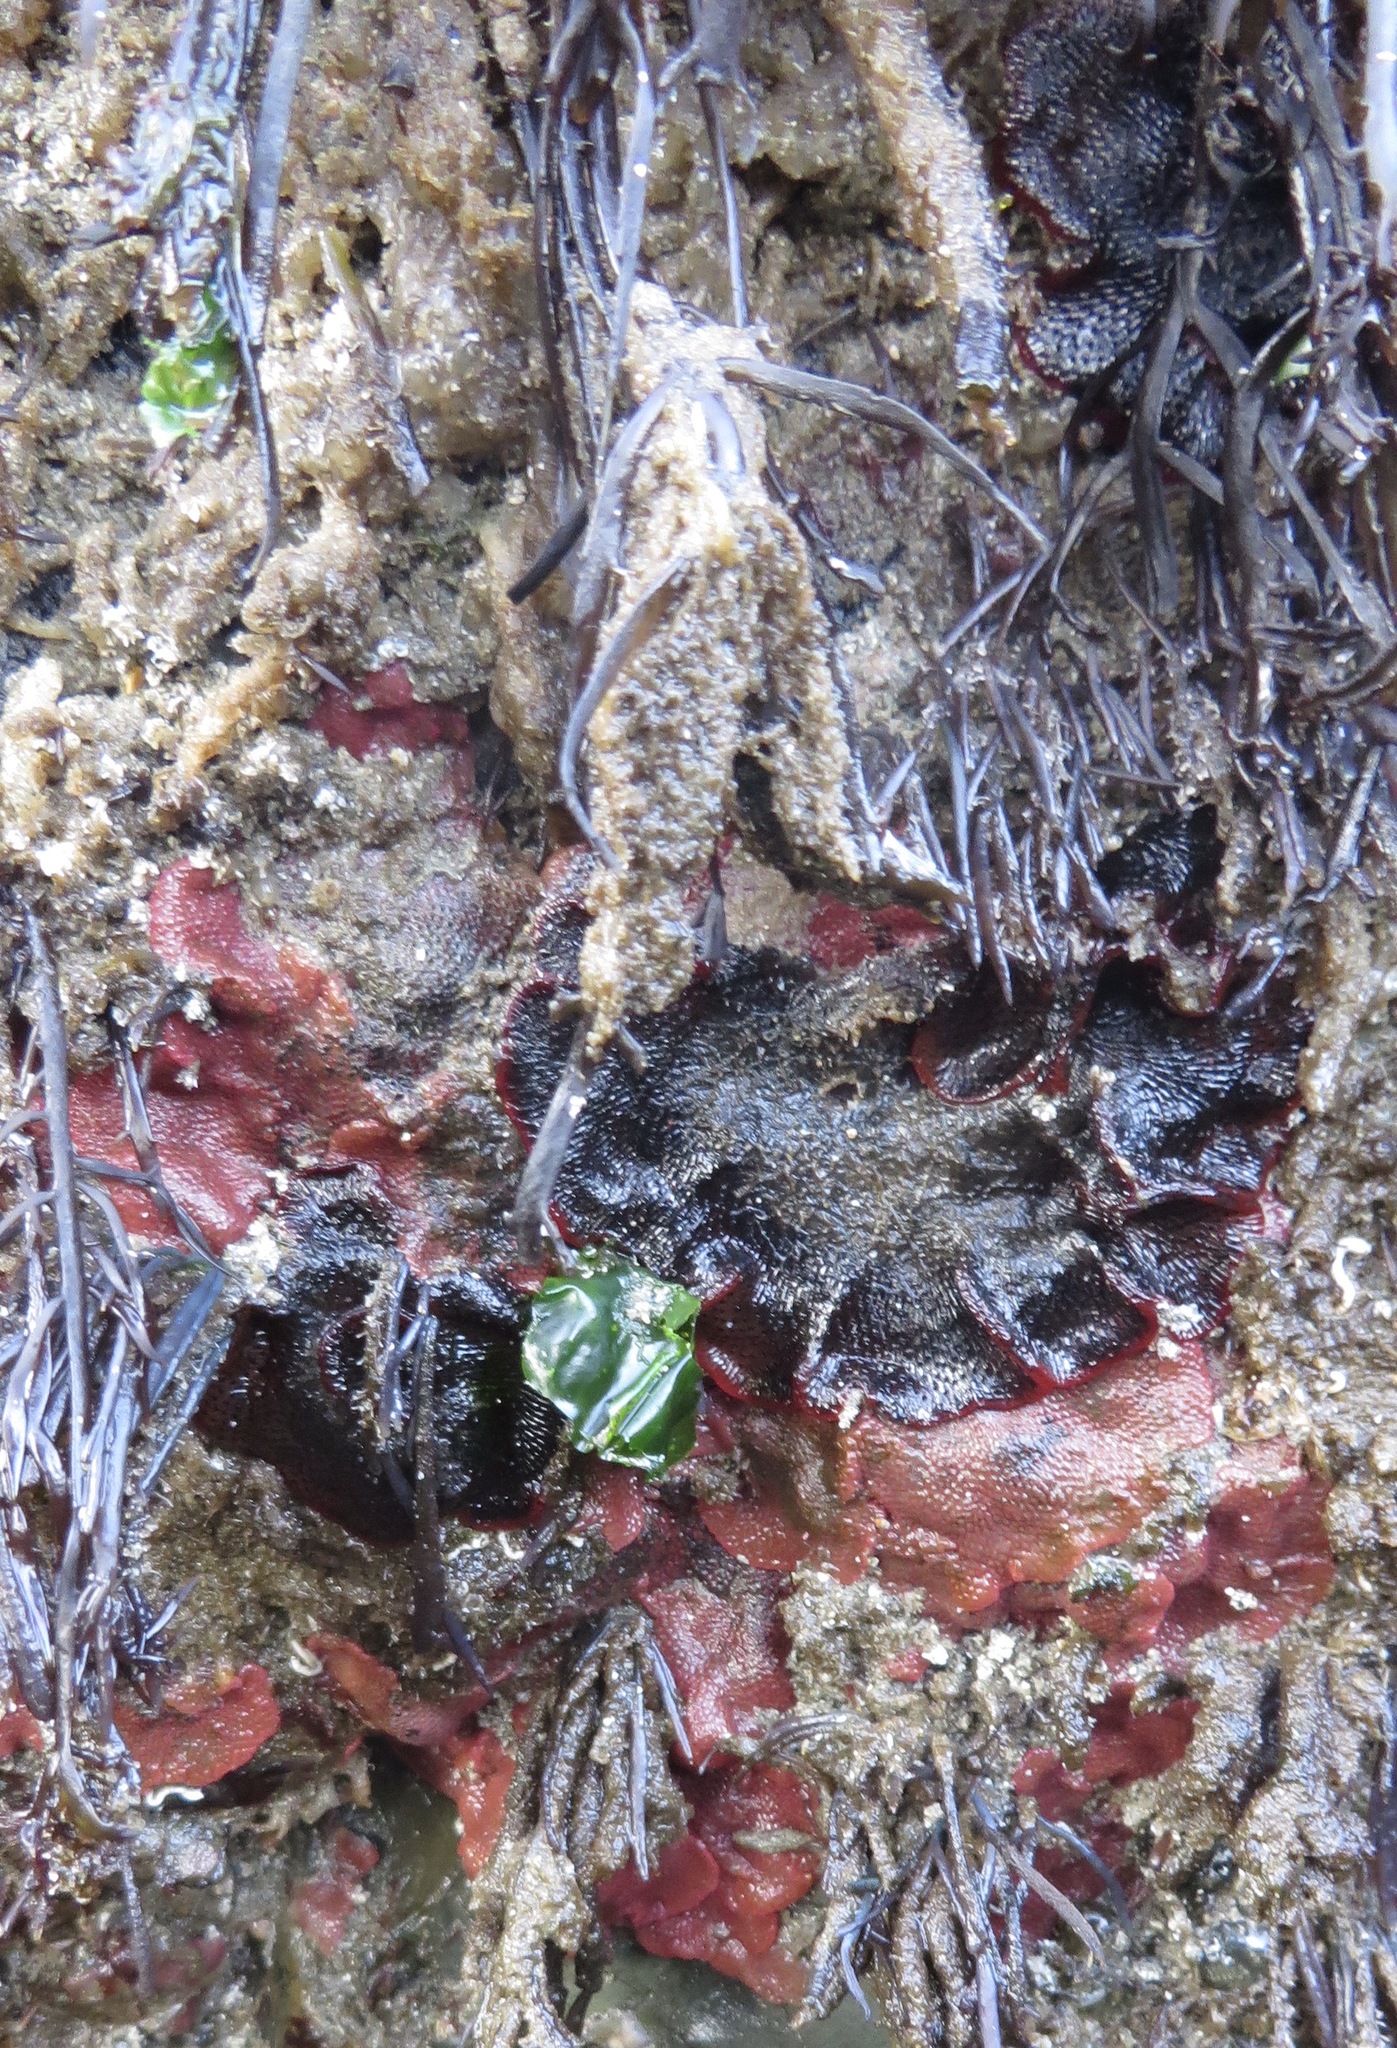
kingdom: Animalia
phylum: Bryozoa
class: Gymnolaemata
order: Cheilostomatida
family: Eurystomellidae
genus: Integripelta
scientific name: Integripelta bilabiata
